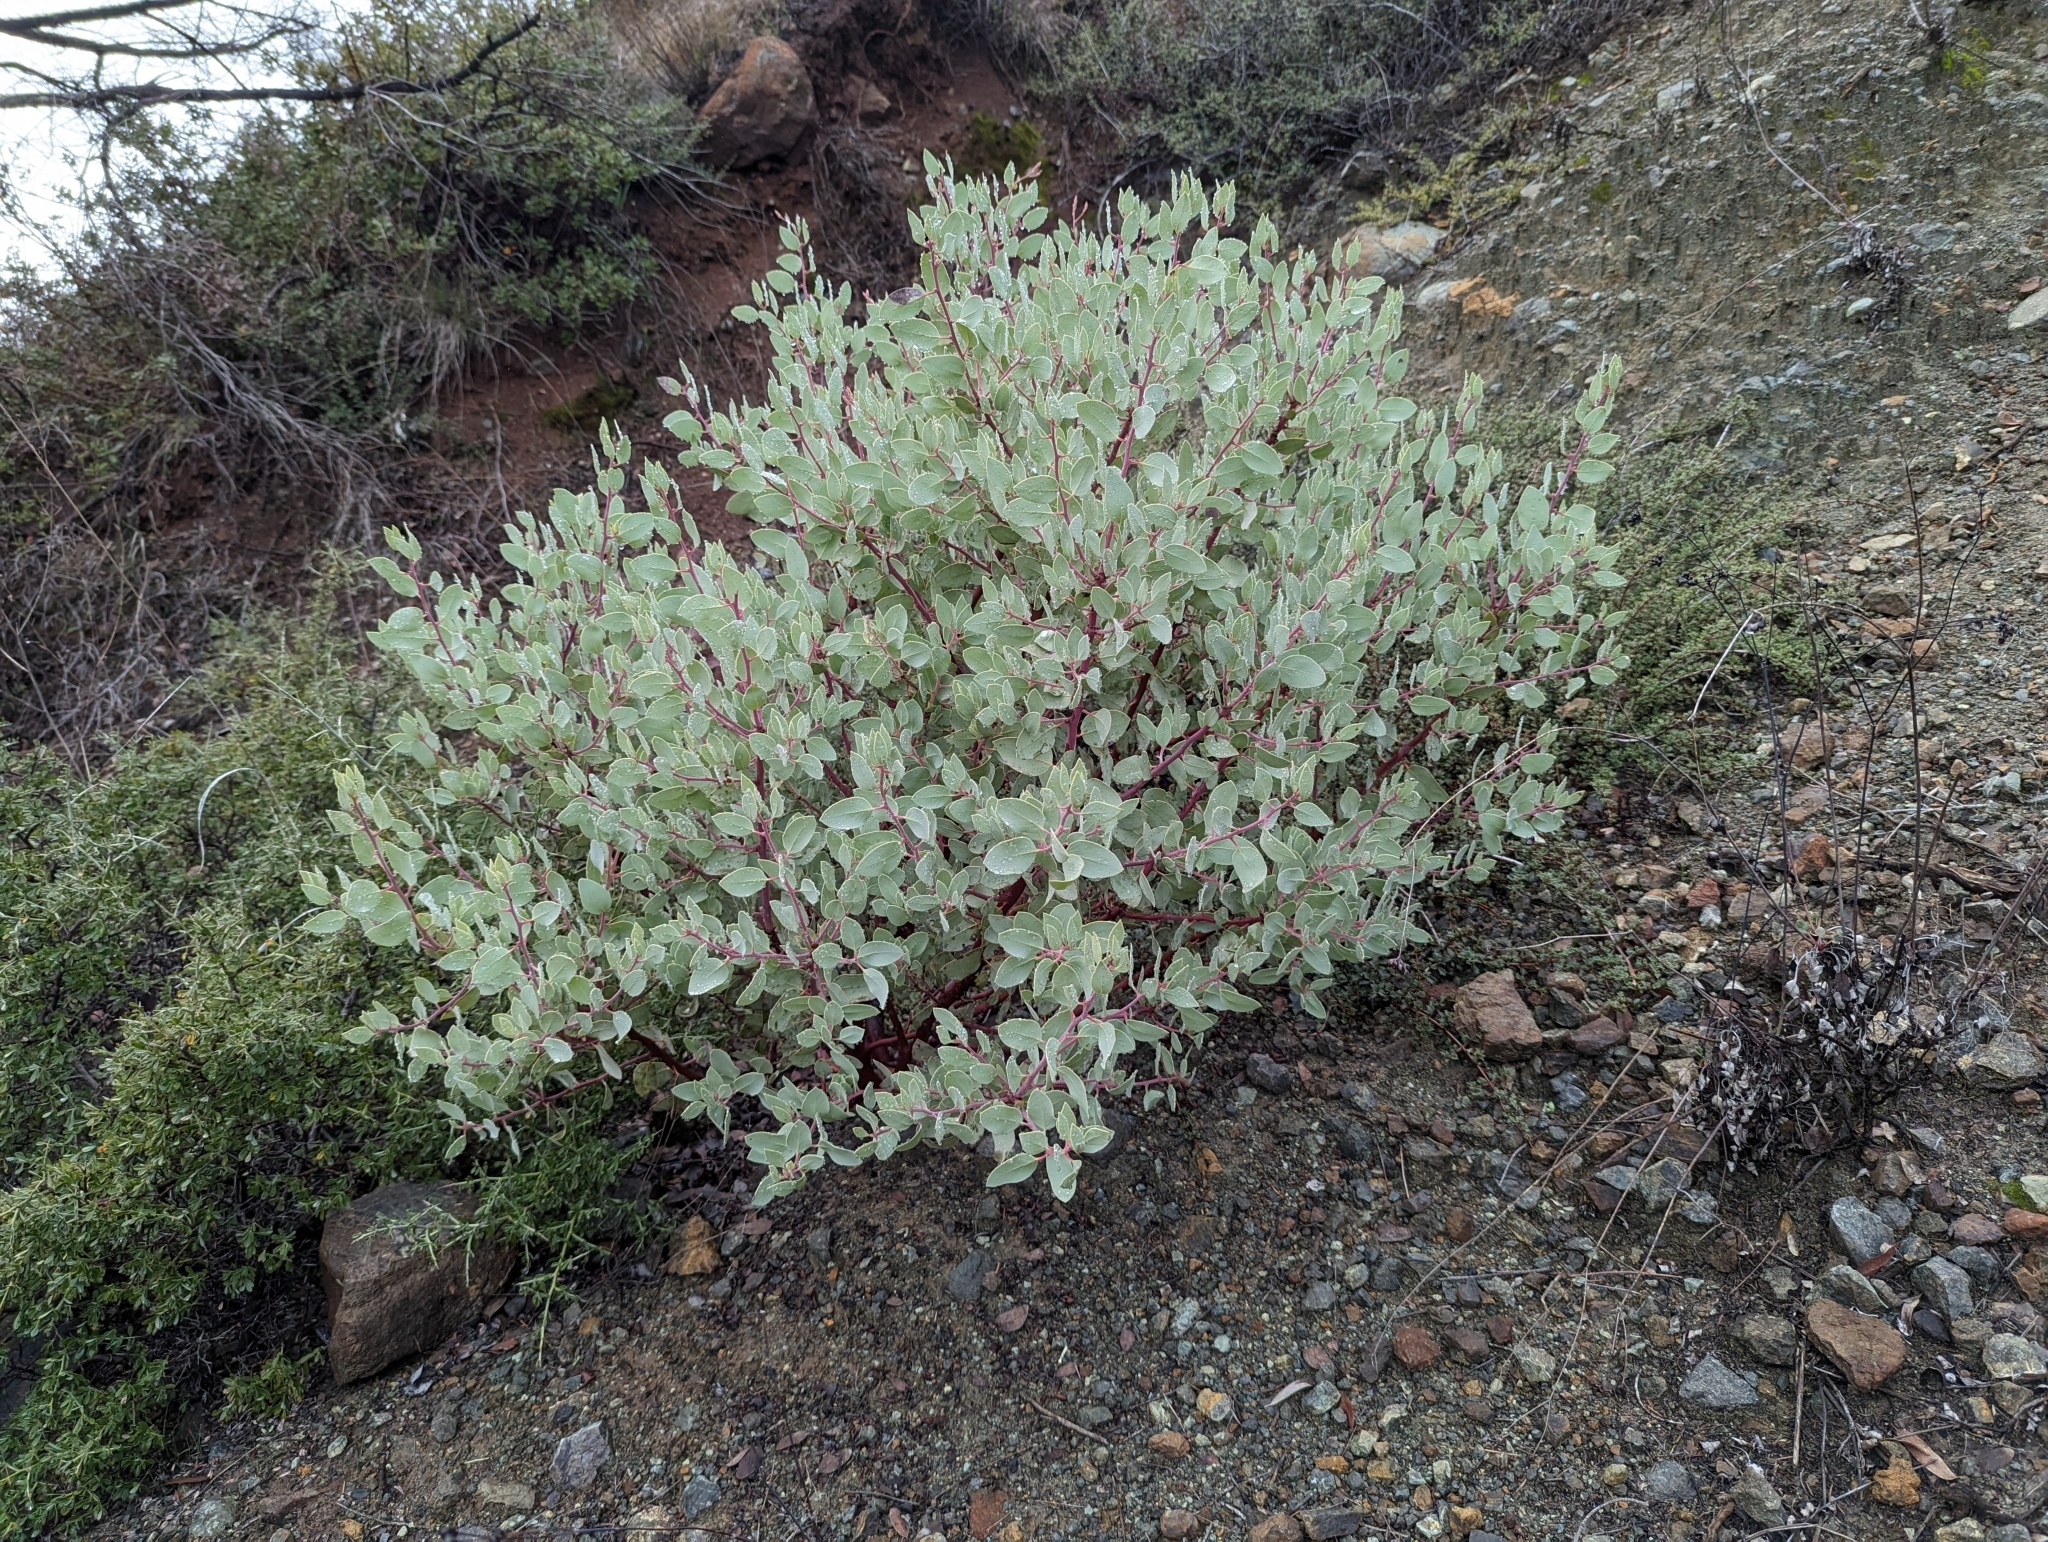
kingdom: Plantae
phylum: Tracheophyta
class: Magnoliopsida
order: Ericales
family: Ericaceae
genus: Arctostaphylos
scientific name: Arctostaphylos viscida
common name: White-leaf manzanita
